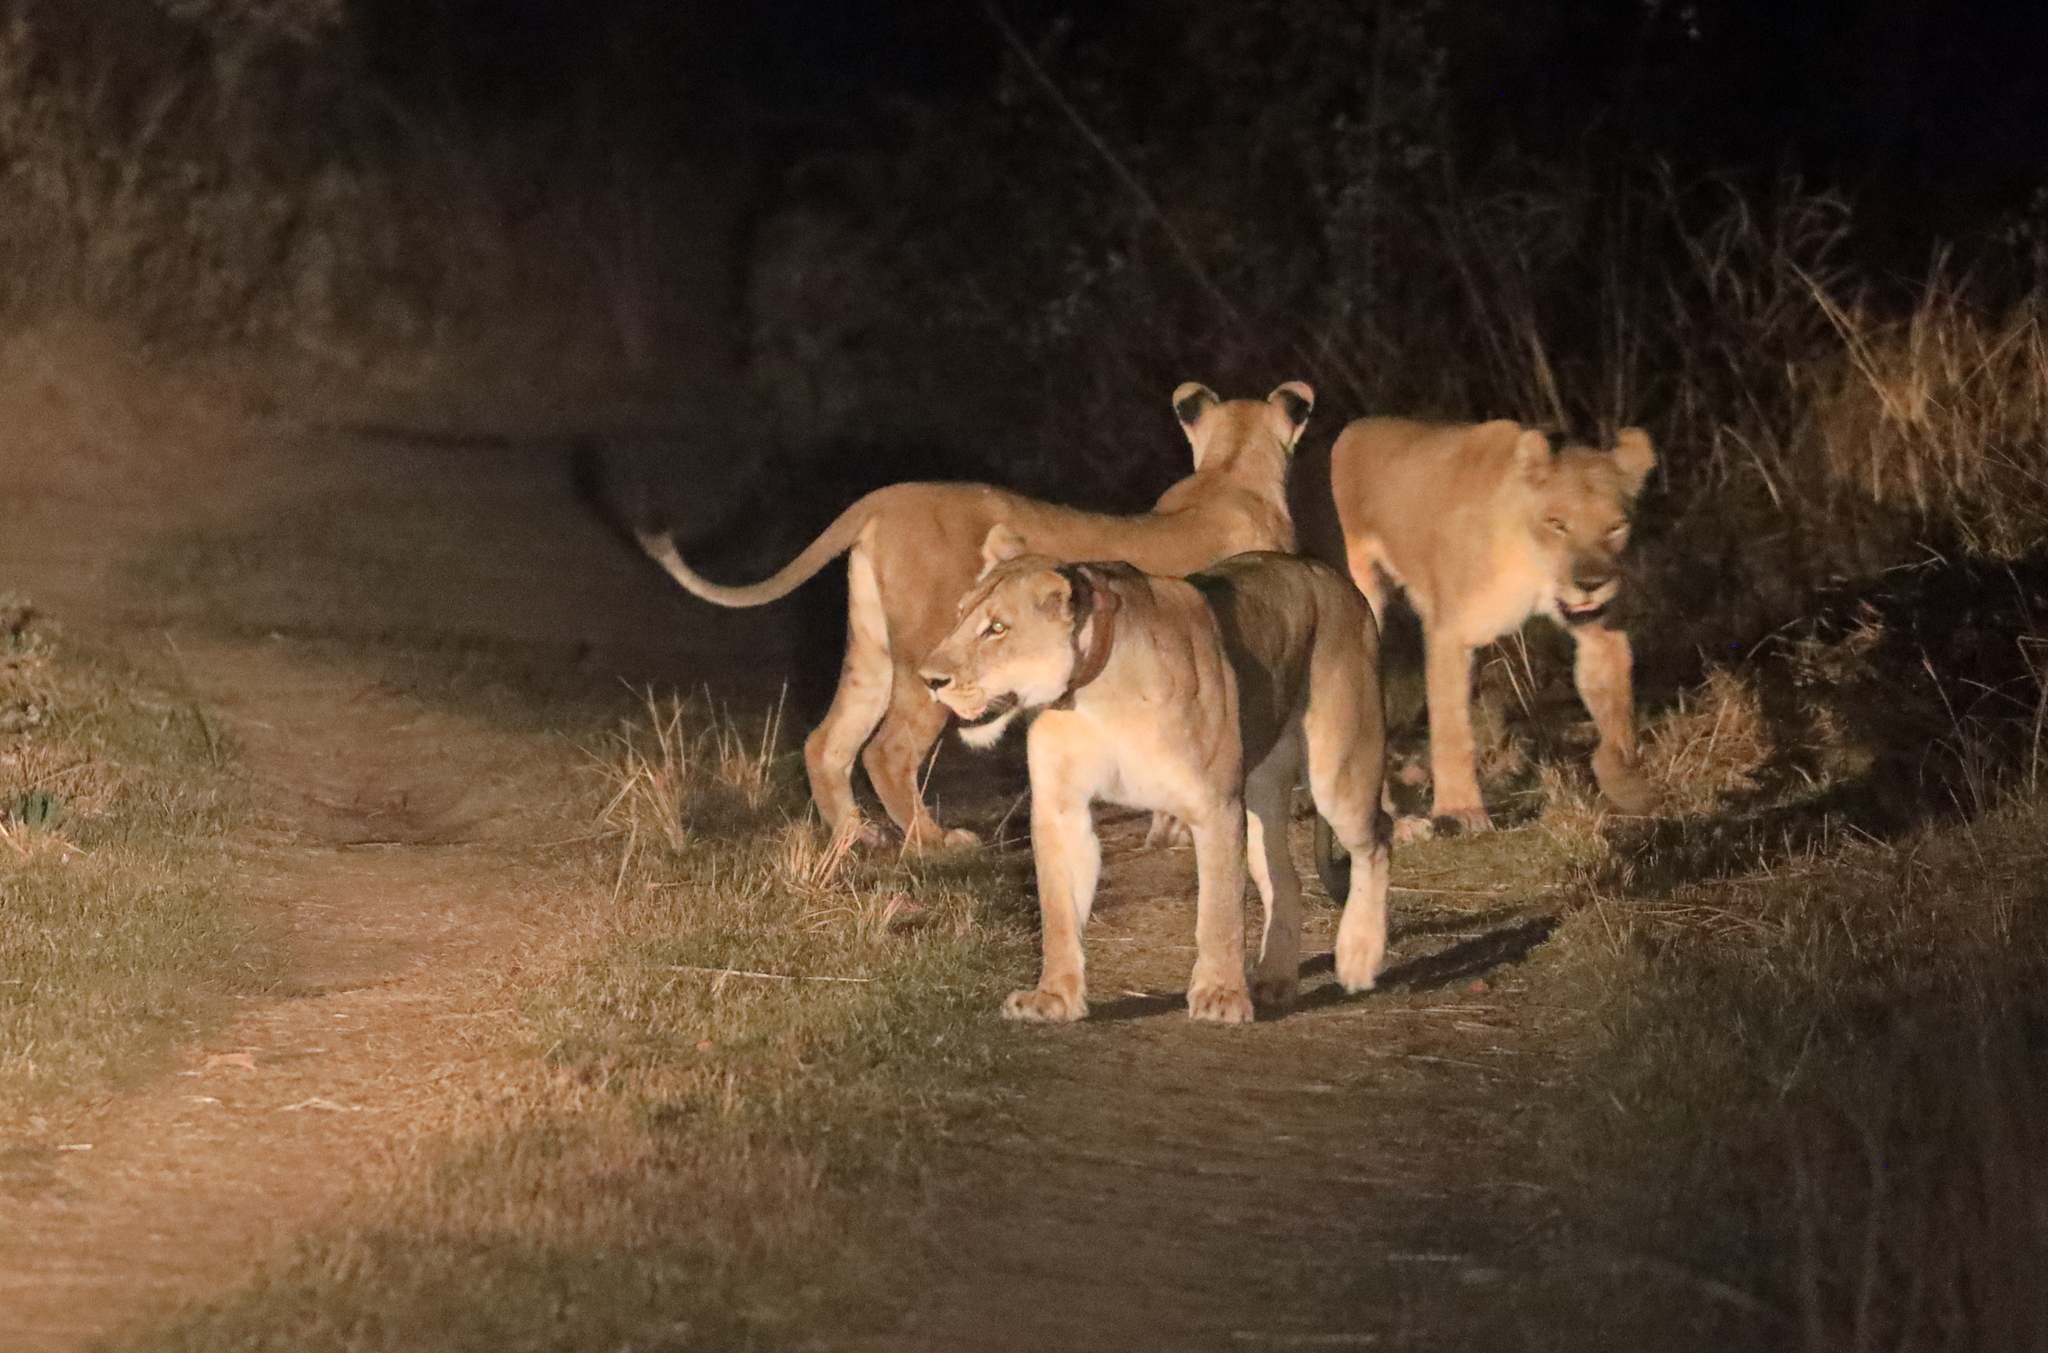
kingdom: Animalia
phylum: Chordata
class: Mammalia
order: Carnivora
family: Felidae
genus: Panthera
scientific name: Panthera leo
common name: Lion
